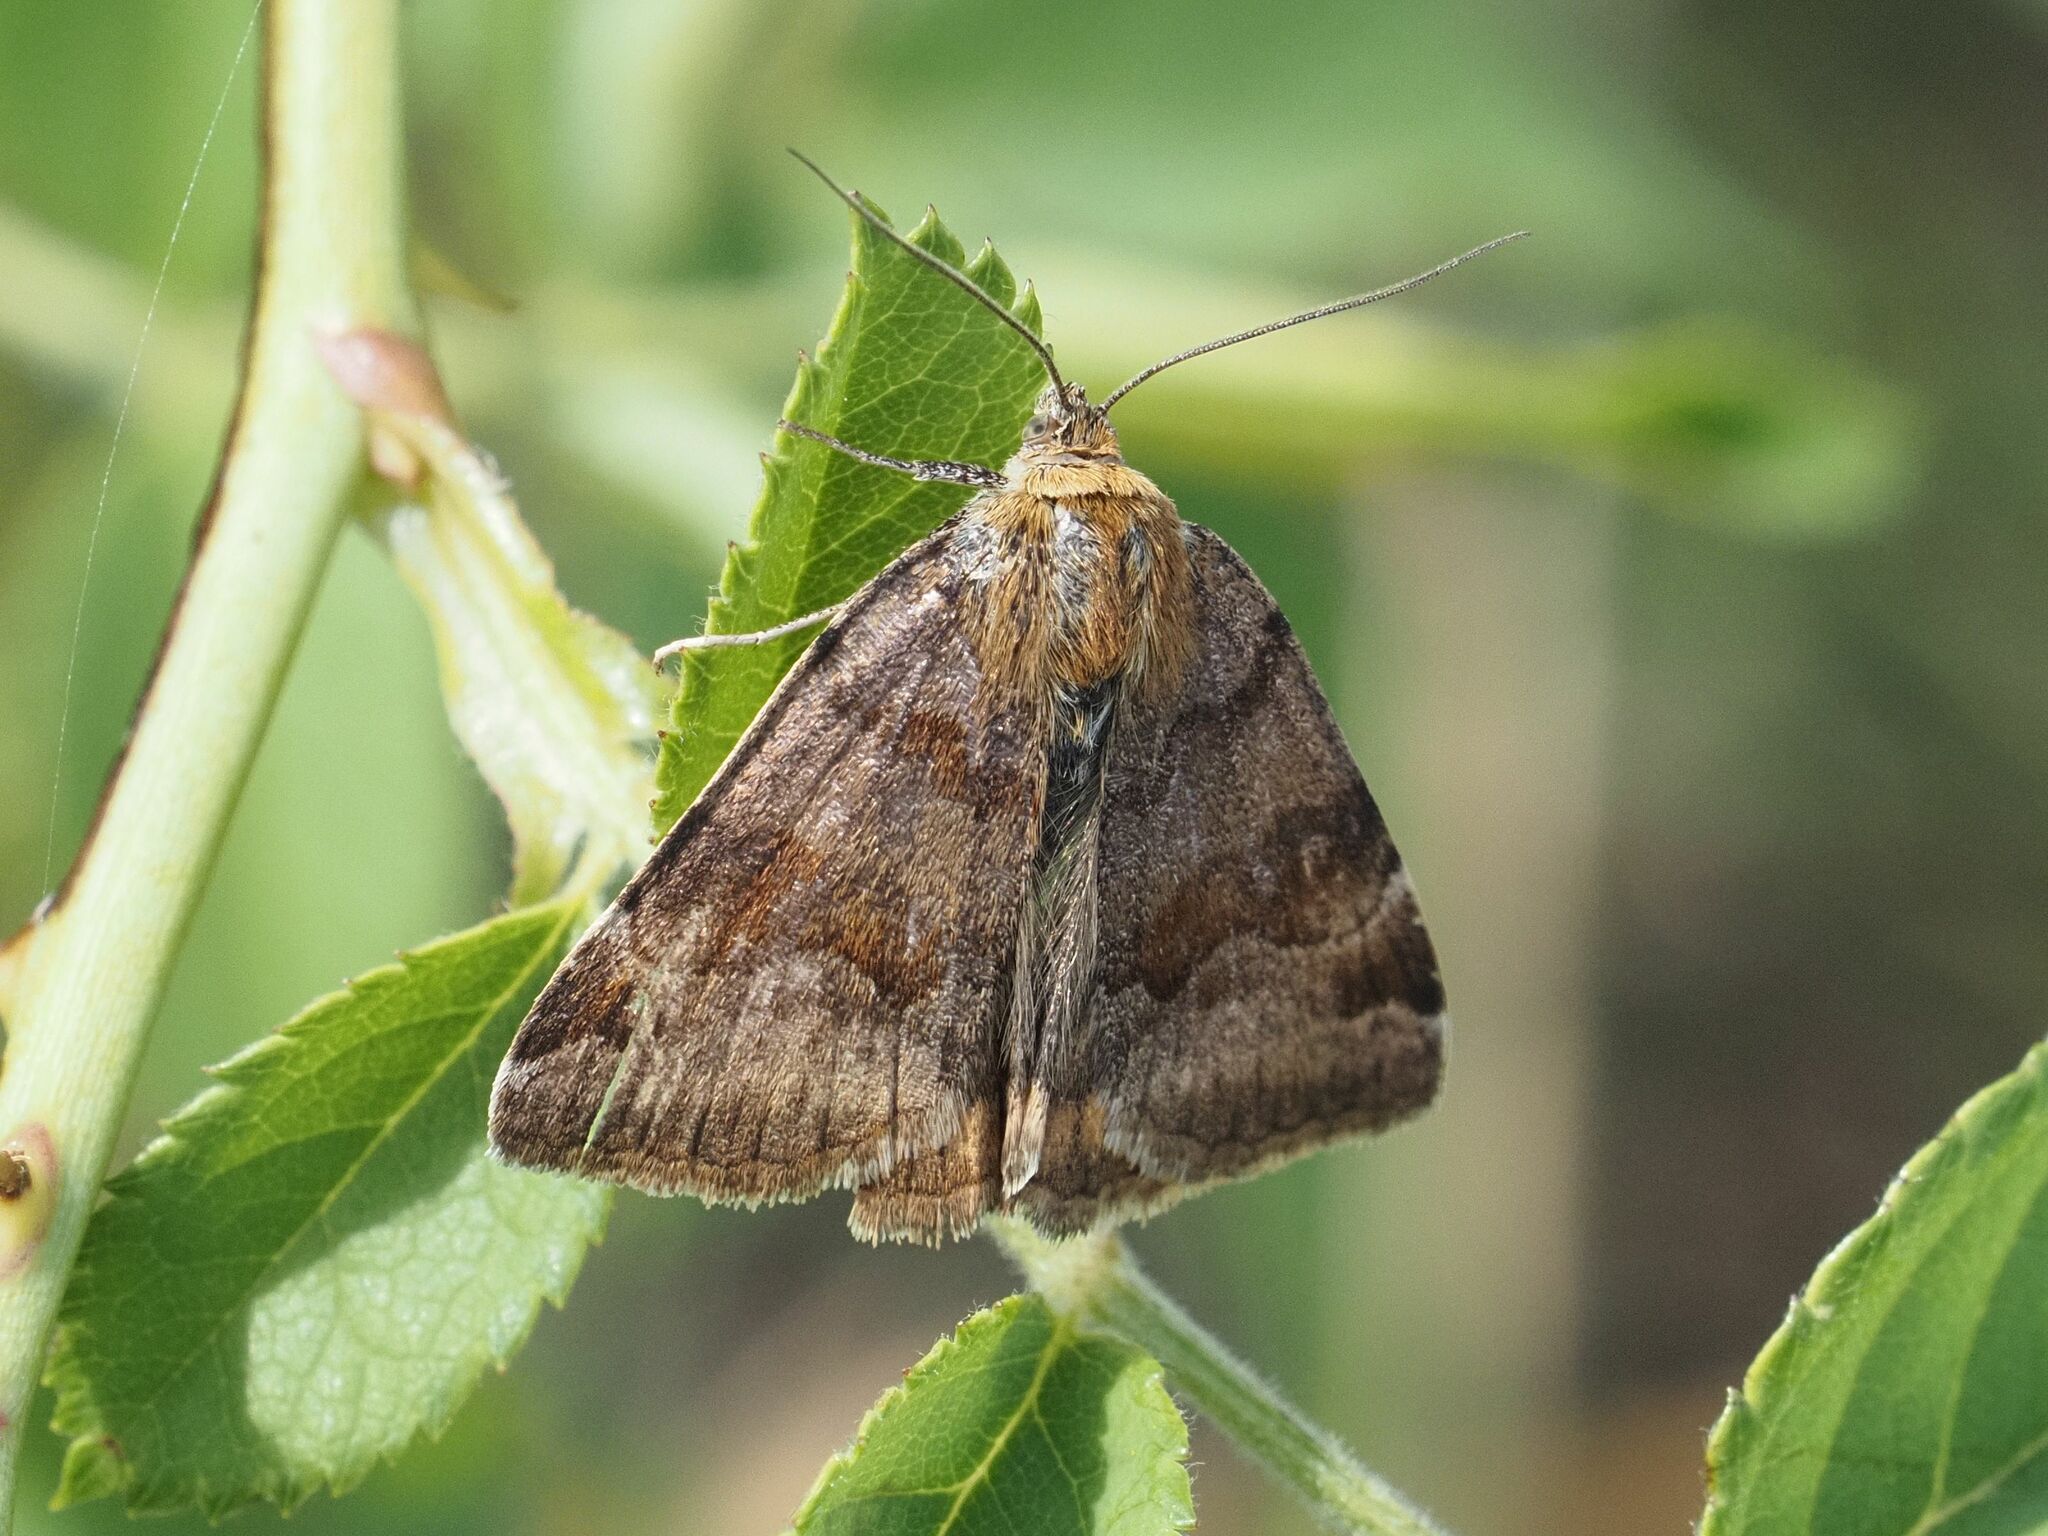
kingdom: Animalia
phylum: Arthropoda
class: Insecta
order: Lepidoptera
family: Erebidae
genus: Euclidia
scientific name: Euclidia glyphica
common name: Burnet companion
